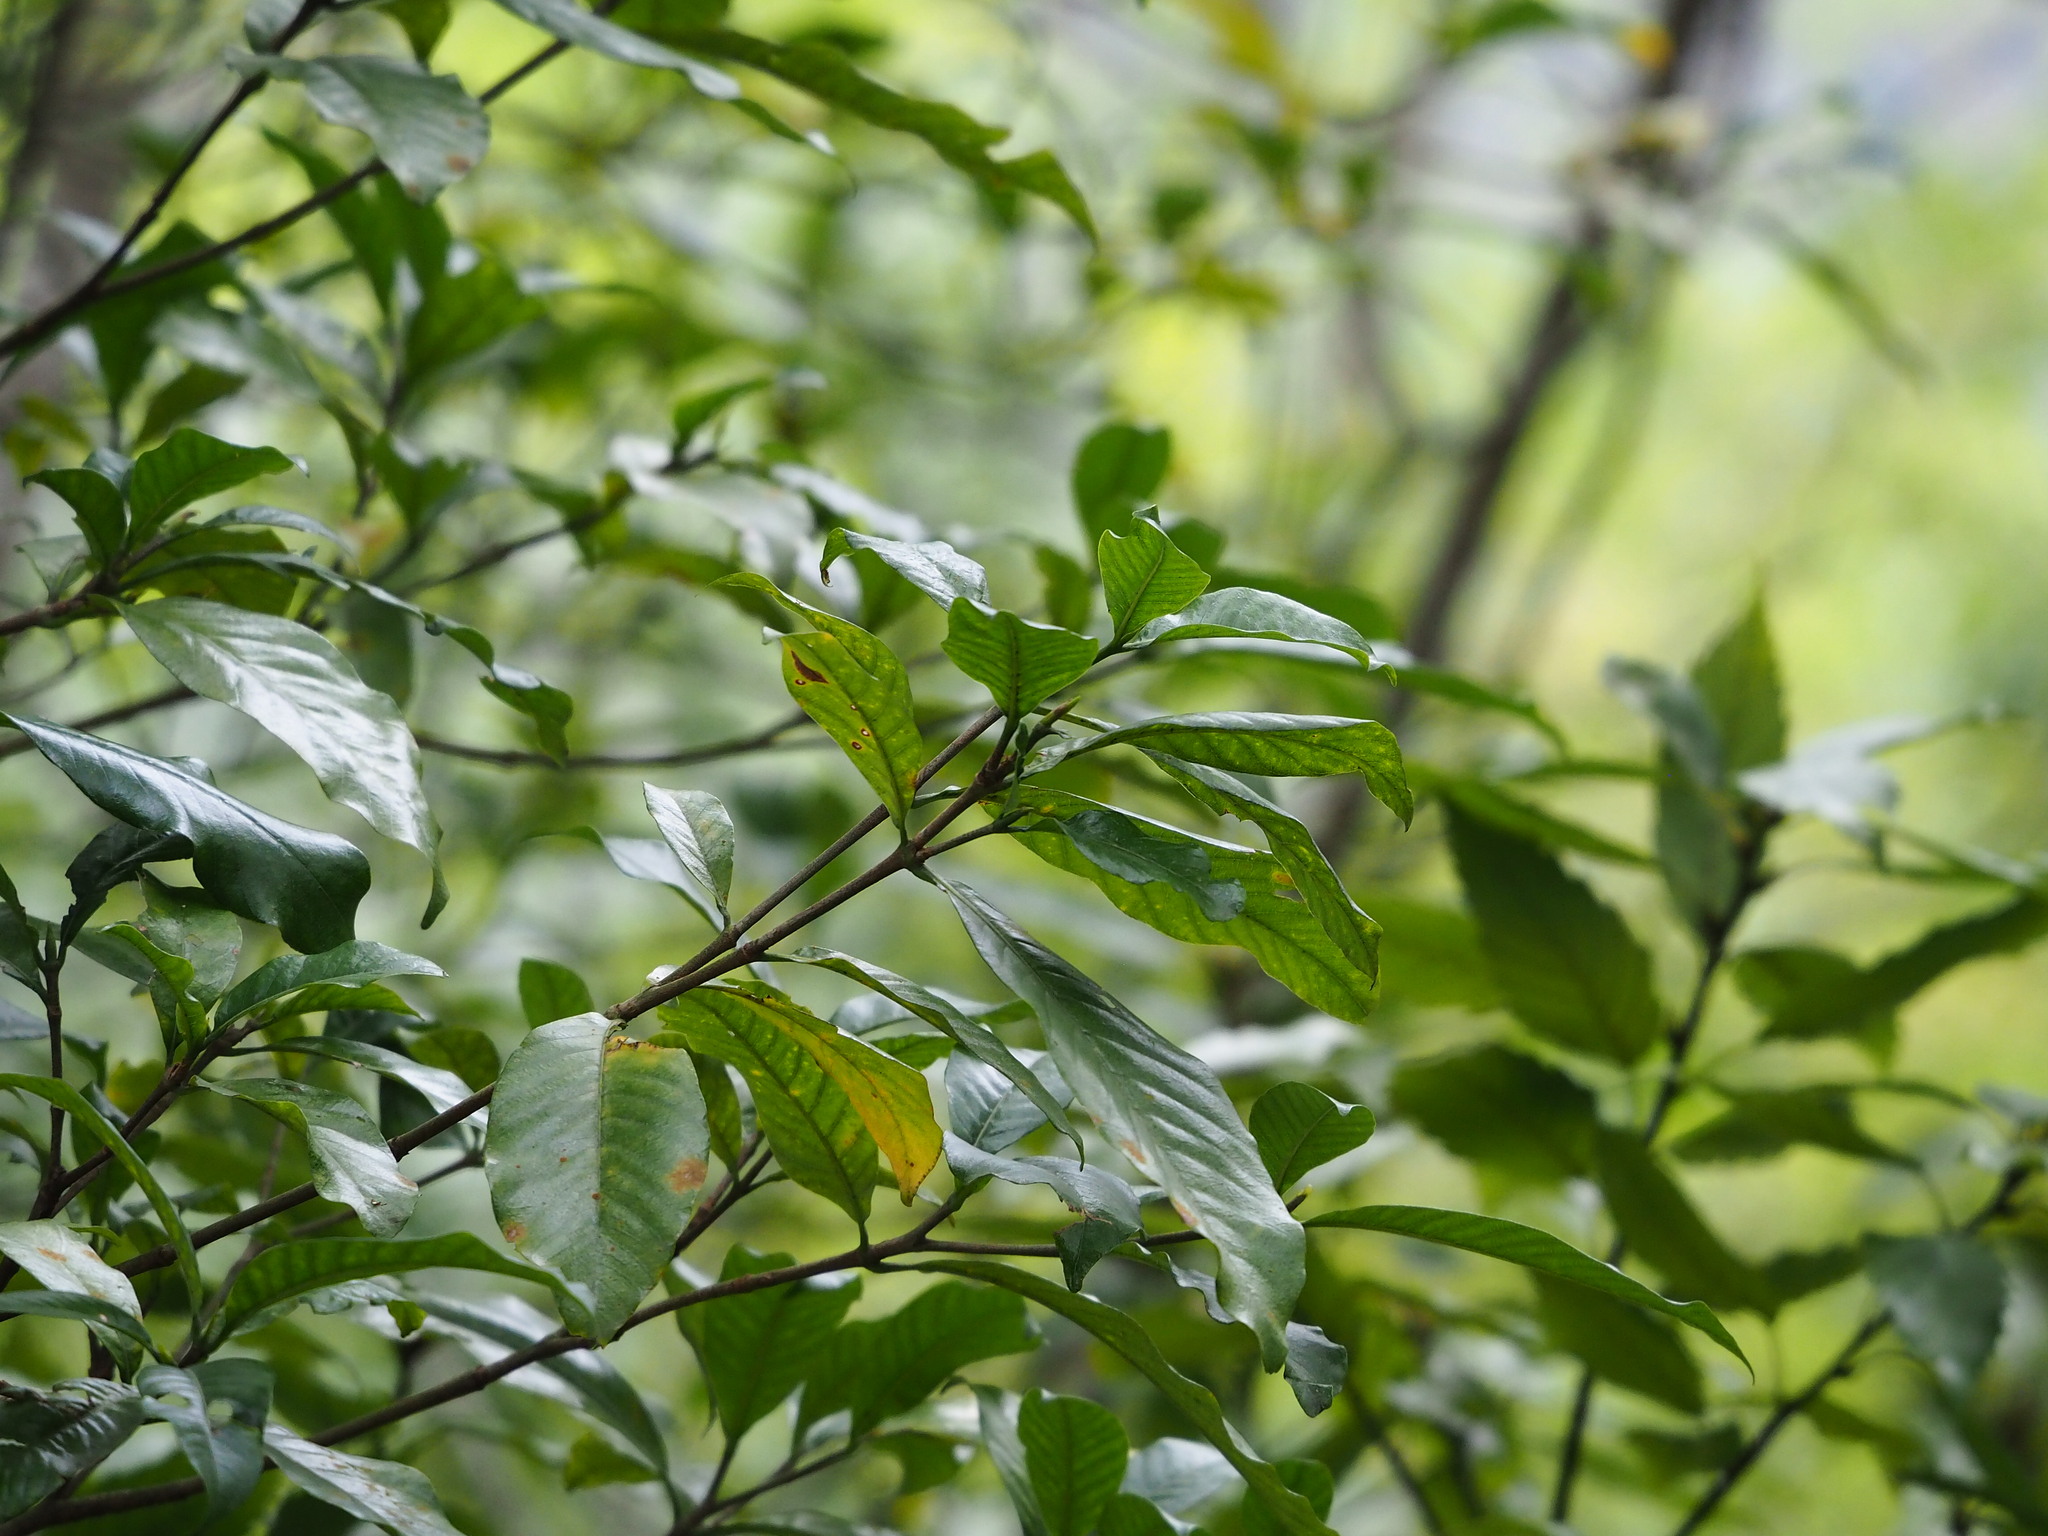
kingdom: Plantae
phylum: Tracheophyta
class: Magnoliopsida
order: Gentianales
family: Rubiaceae
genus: Gardenia
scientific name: Gardenia jasminoides
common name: Cape-jasmine
